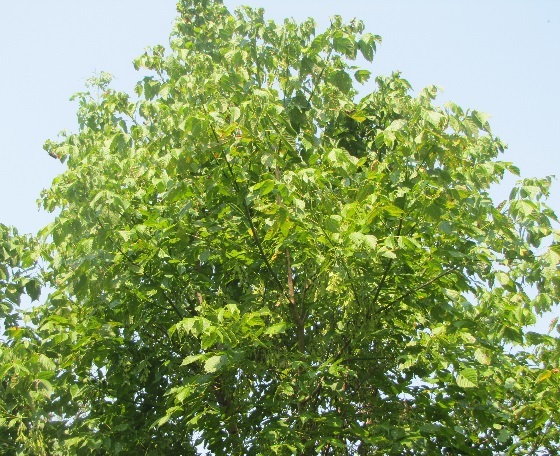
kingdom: Plantae
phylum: Tracheophyta
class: Magnoliopsida
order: Sapindales
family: Sapindaceae
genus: Acer
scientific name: Acer negundo
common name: Ashleaf maple
